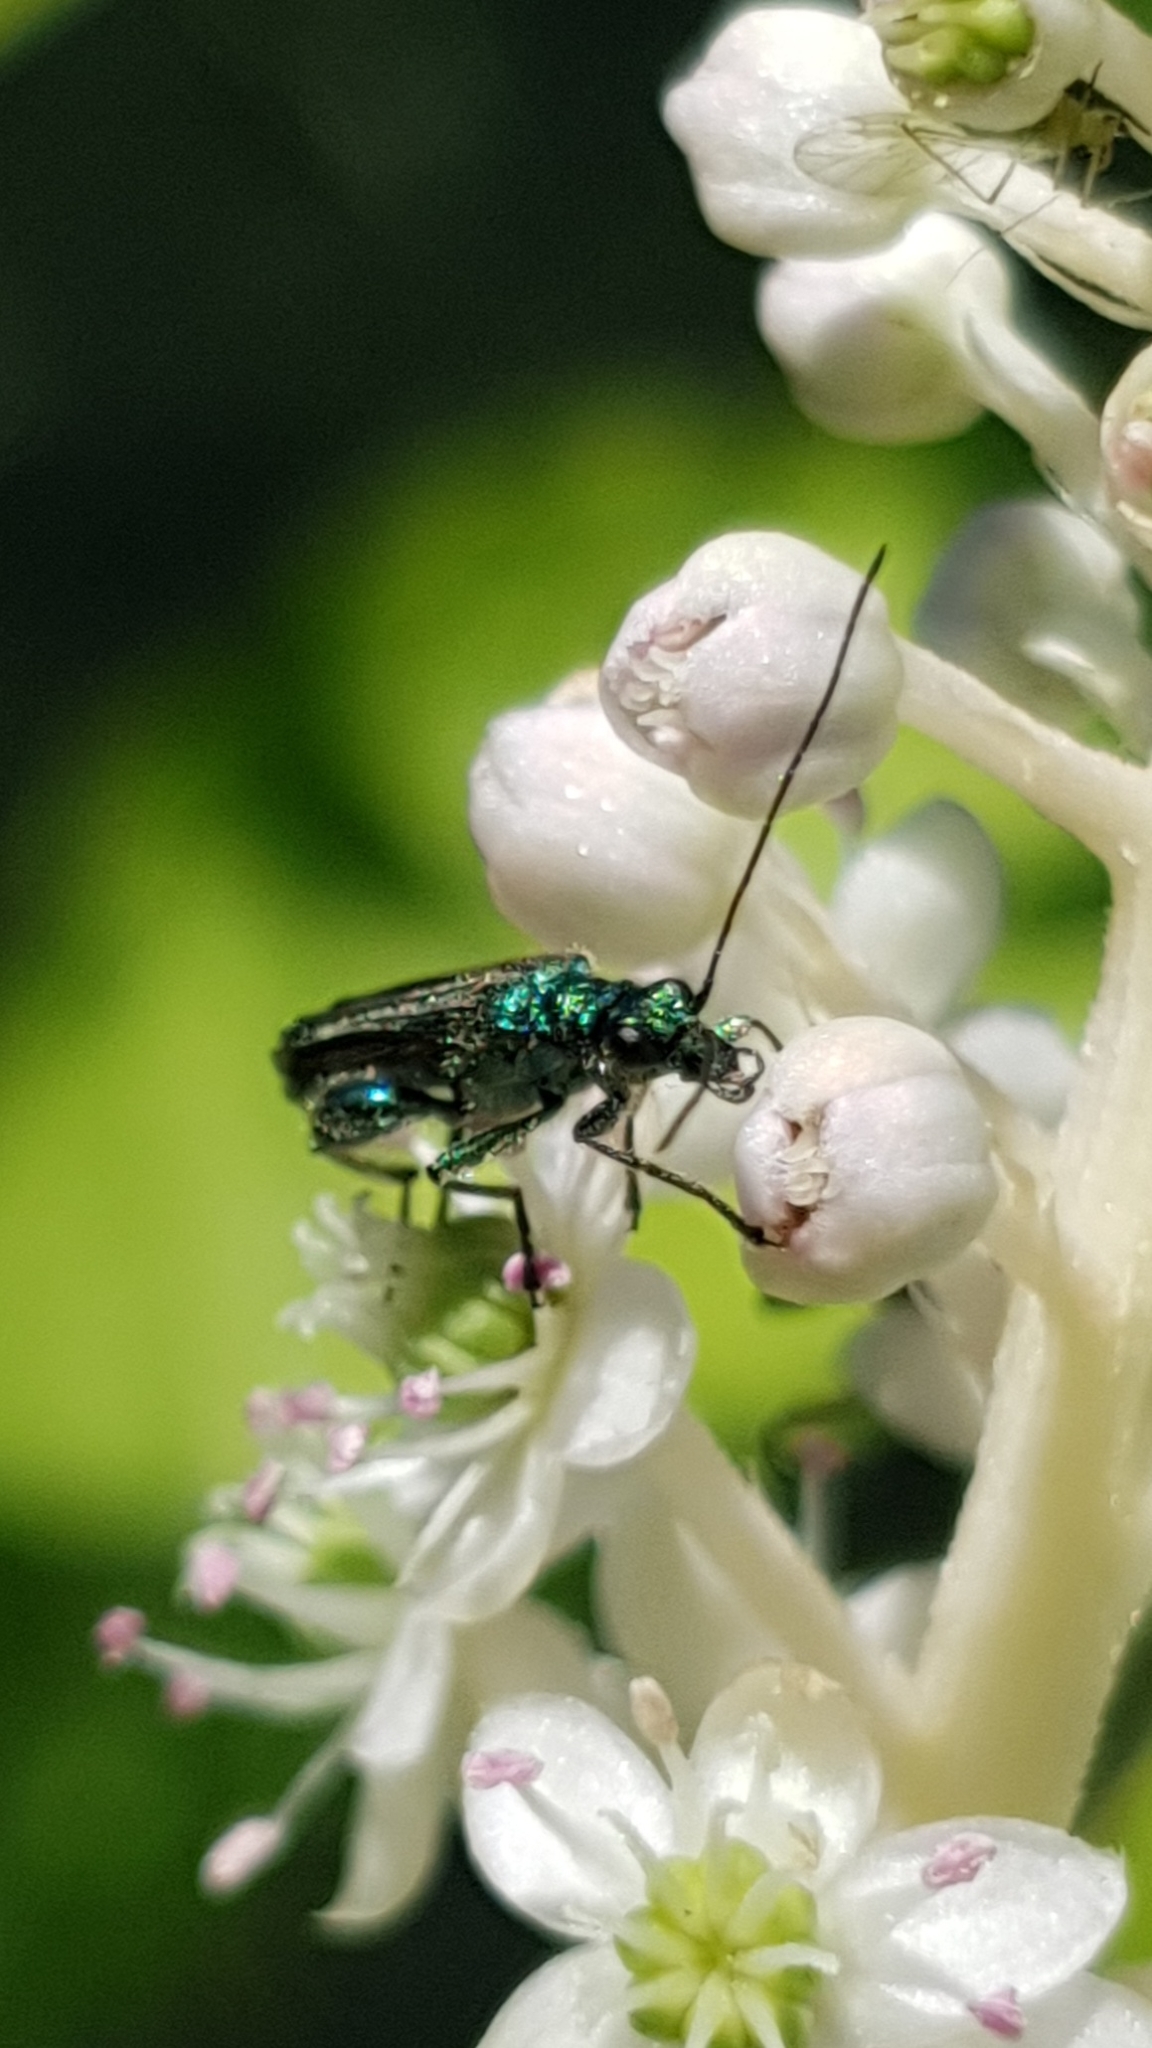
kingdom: Animalia
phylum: Arthropoda
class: Insecta
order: Coleoptera
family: Oedemeridae
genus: Oedemera
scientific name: Oedemera nobilis
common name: Swollen-thighed beetle
